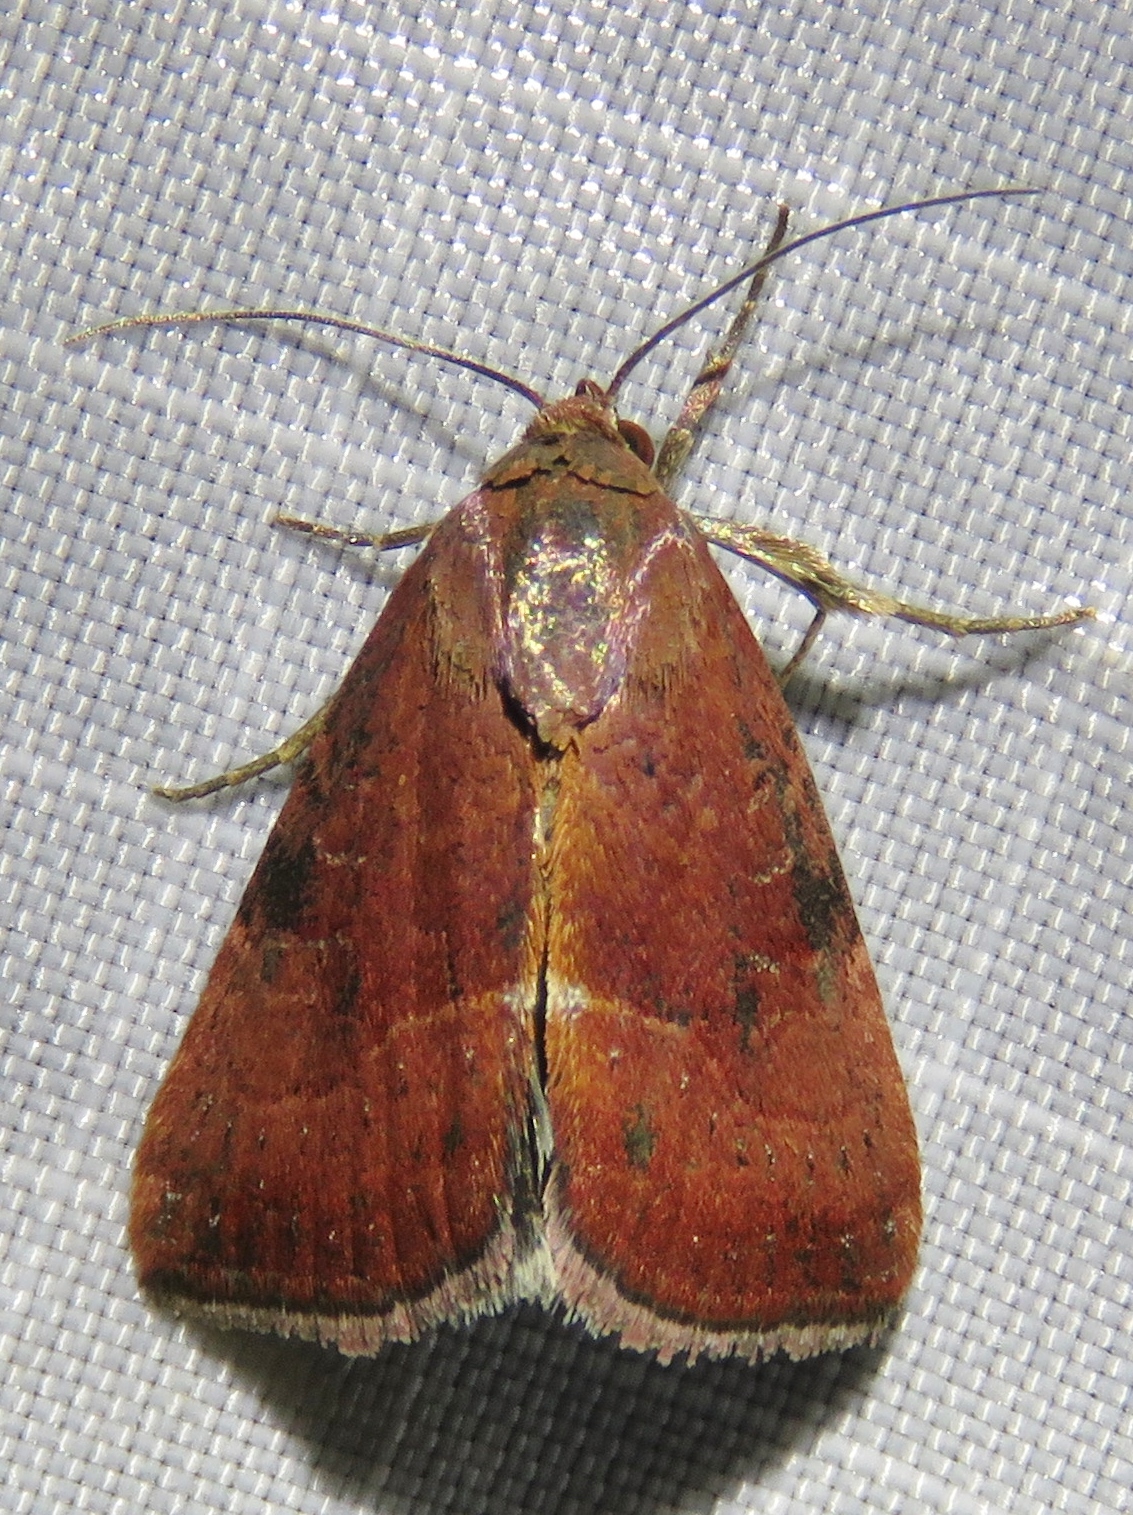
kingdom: Animalia
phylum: Arthropoda
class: Insecta
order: Lepidoptera
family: Noctuidae
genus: Galgula
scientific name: Galgula partita
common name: Wedgeling
